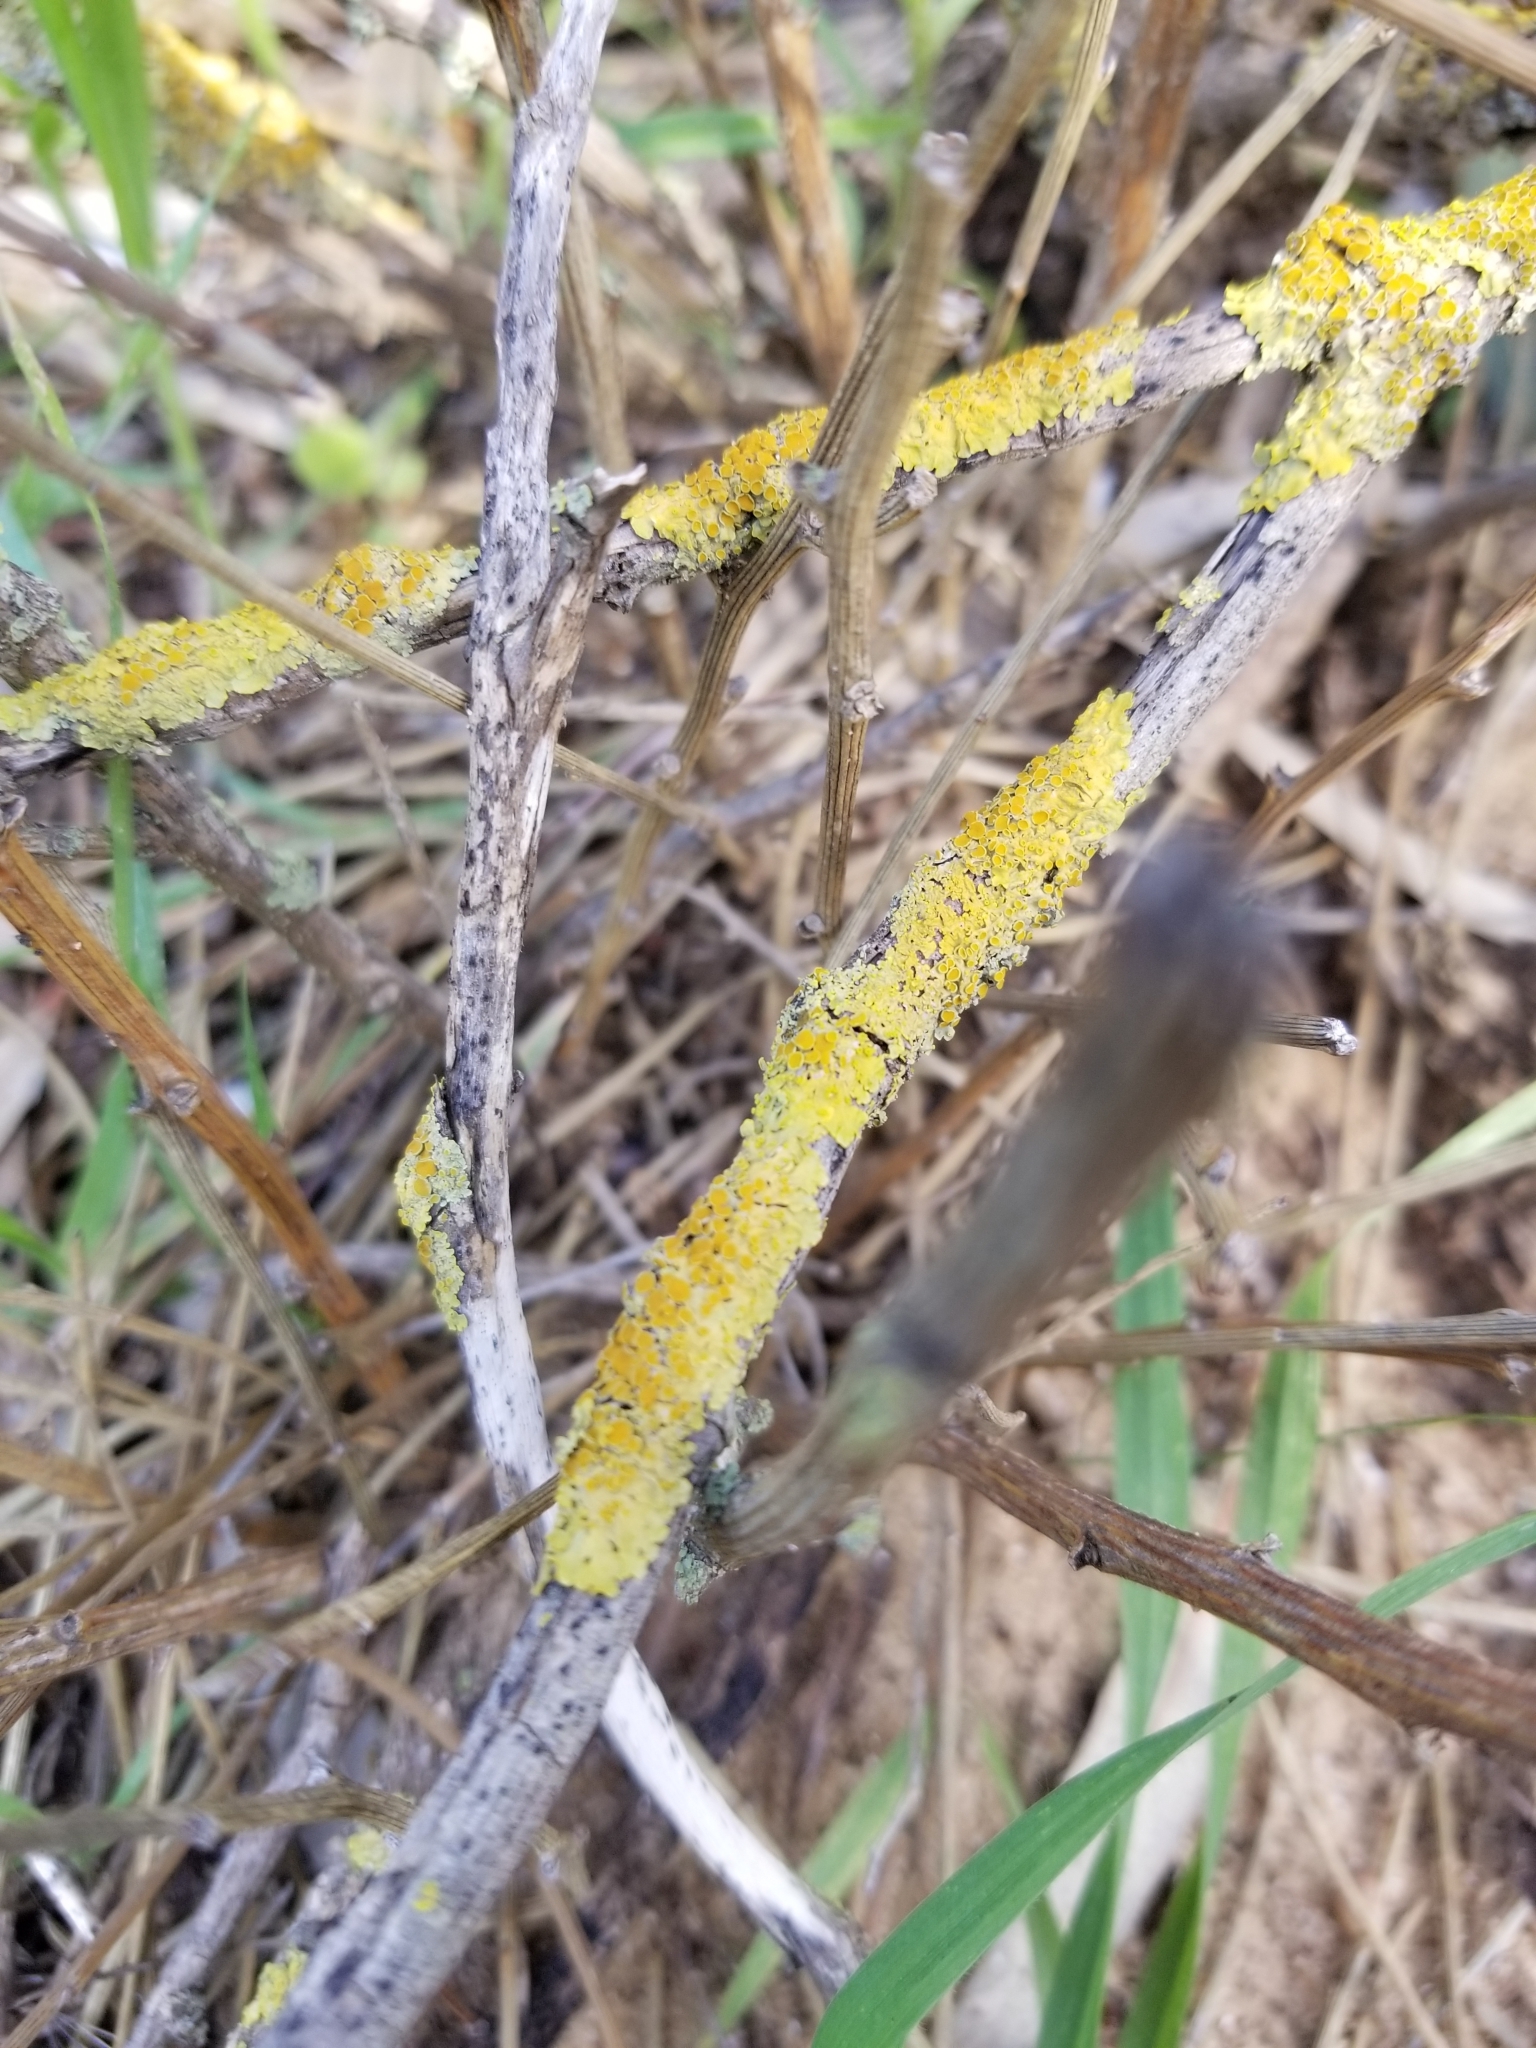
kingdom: Fungi
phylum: Ascomycota
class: Lecanoromycetes
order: Teloschistales
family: Teloschistaceae
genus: Xanthoria
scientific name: Xanthoria parietina
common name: Common orange lichen
